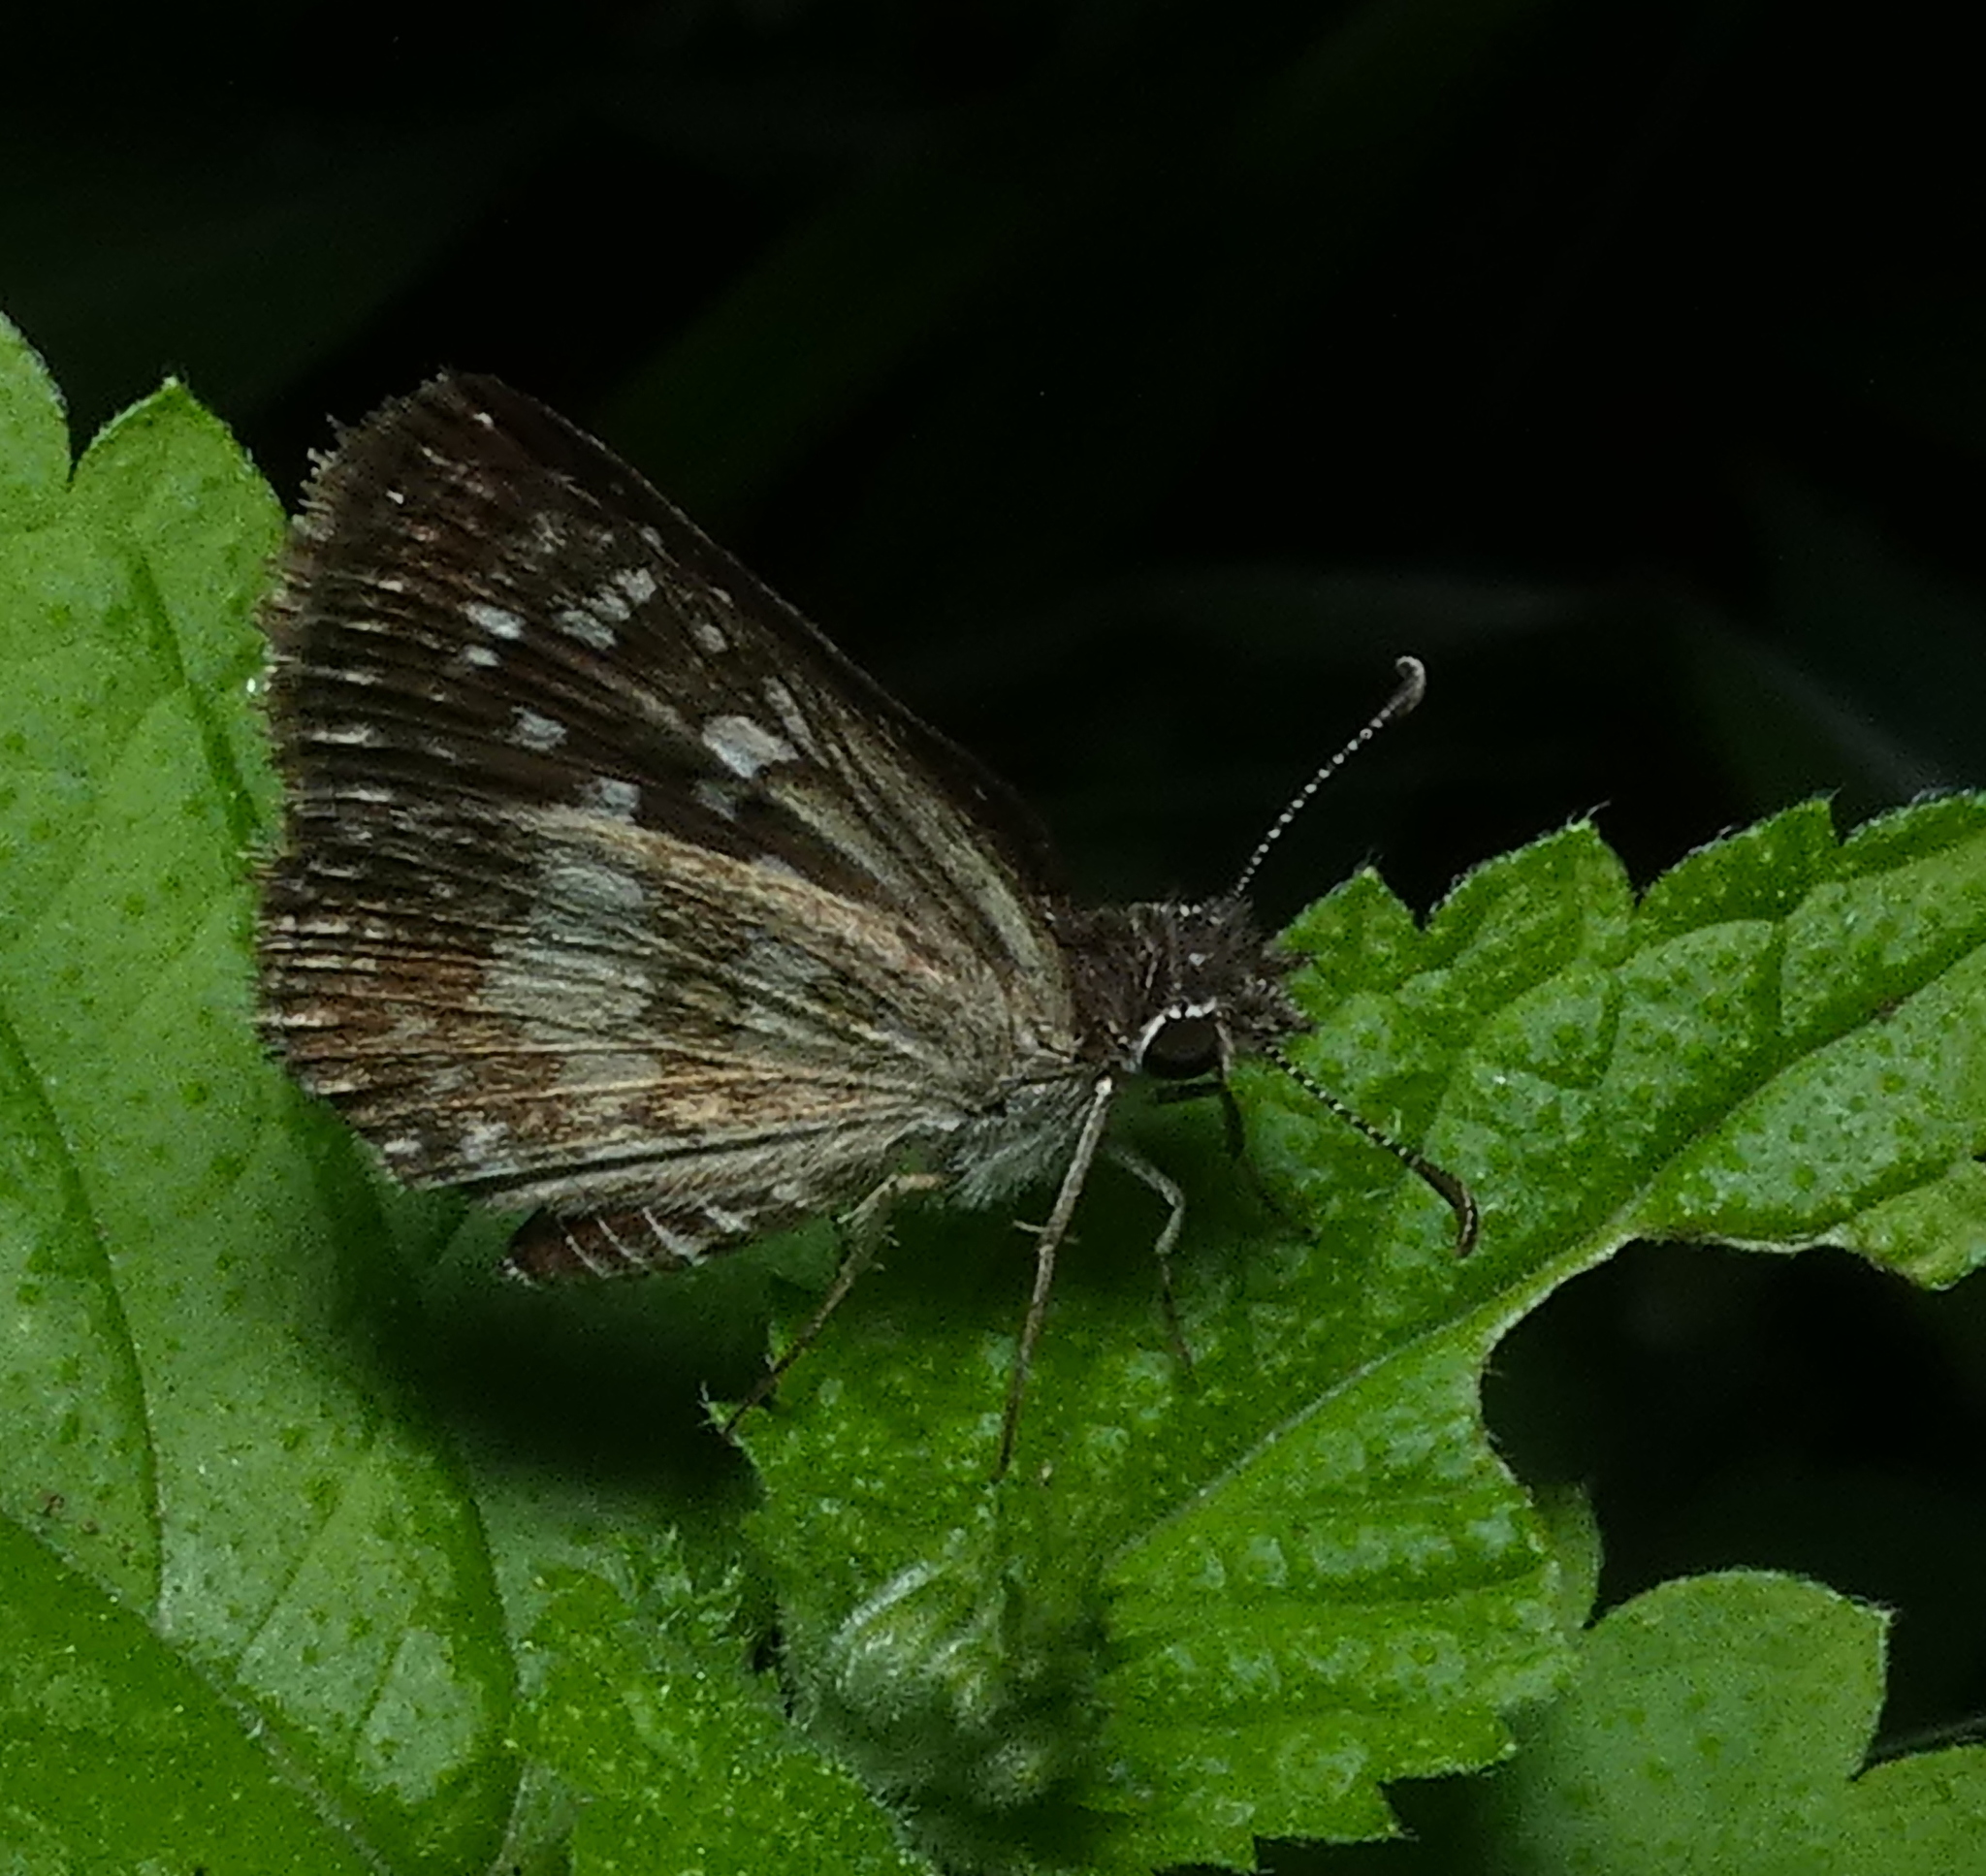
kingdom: Animalia
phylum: Arthropoda
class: Insecta
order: Lepidoptera
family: Hesperiidae
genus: Pyrgus
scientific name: Pyrgus oileus
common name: Tropical checkered-skipper
